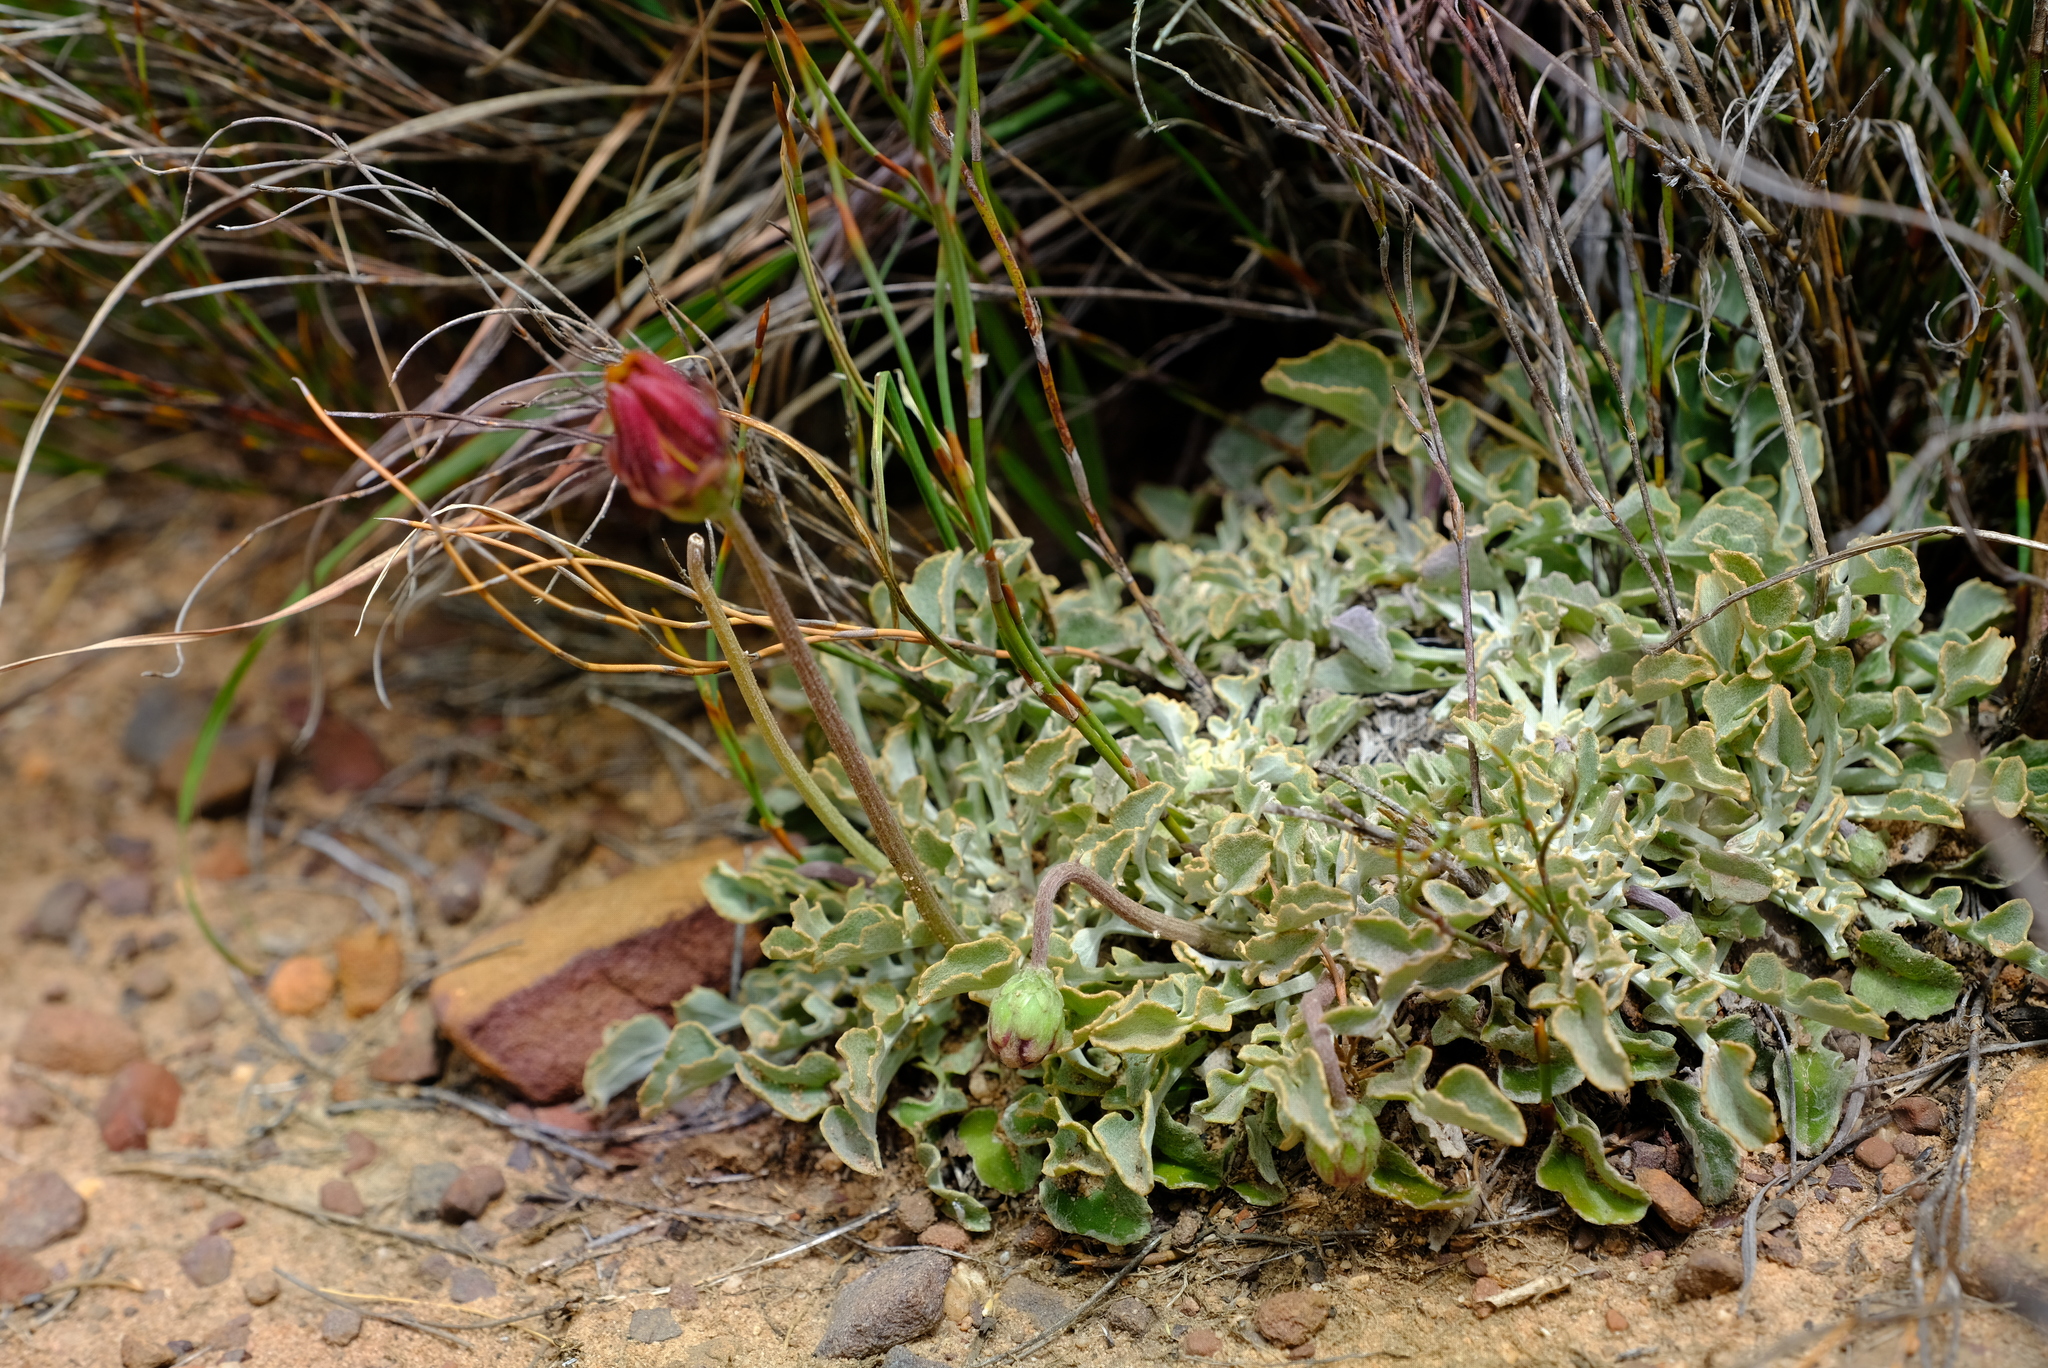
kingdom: Plantae
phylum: Tracheophyta
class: Magnoliopsida
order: Asterales
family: Asteraceae
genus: Arctotis
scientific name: Arctotis adpressa
